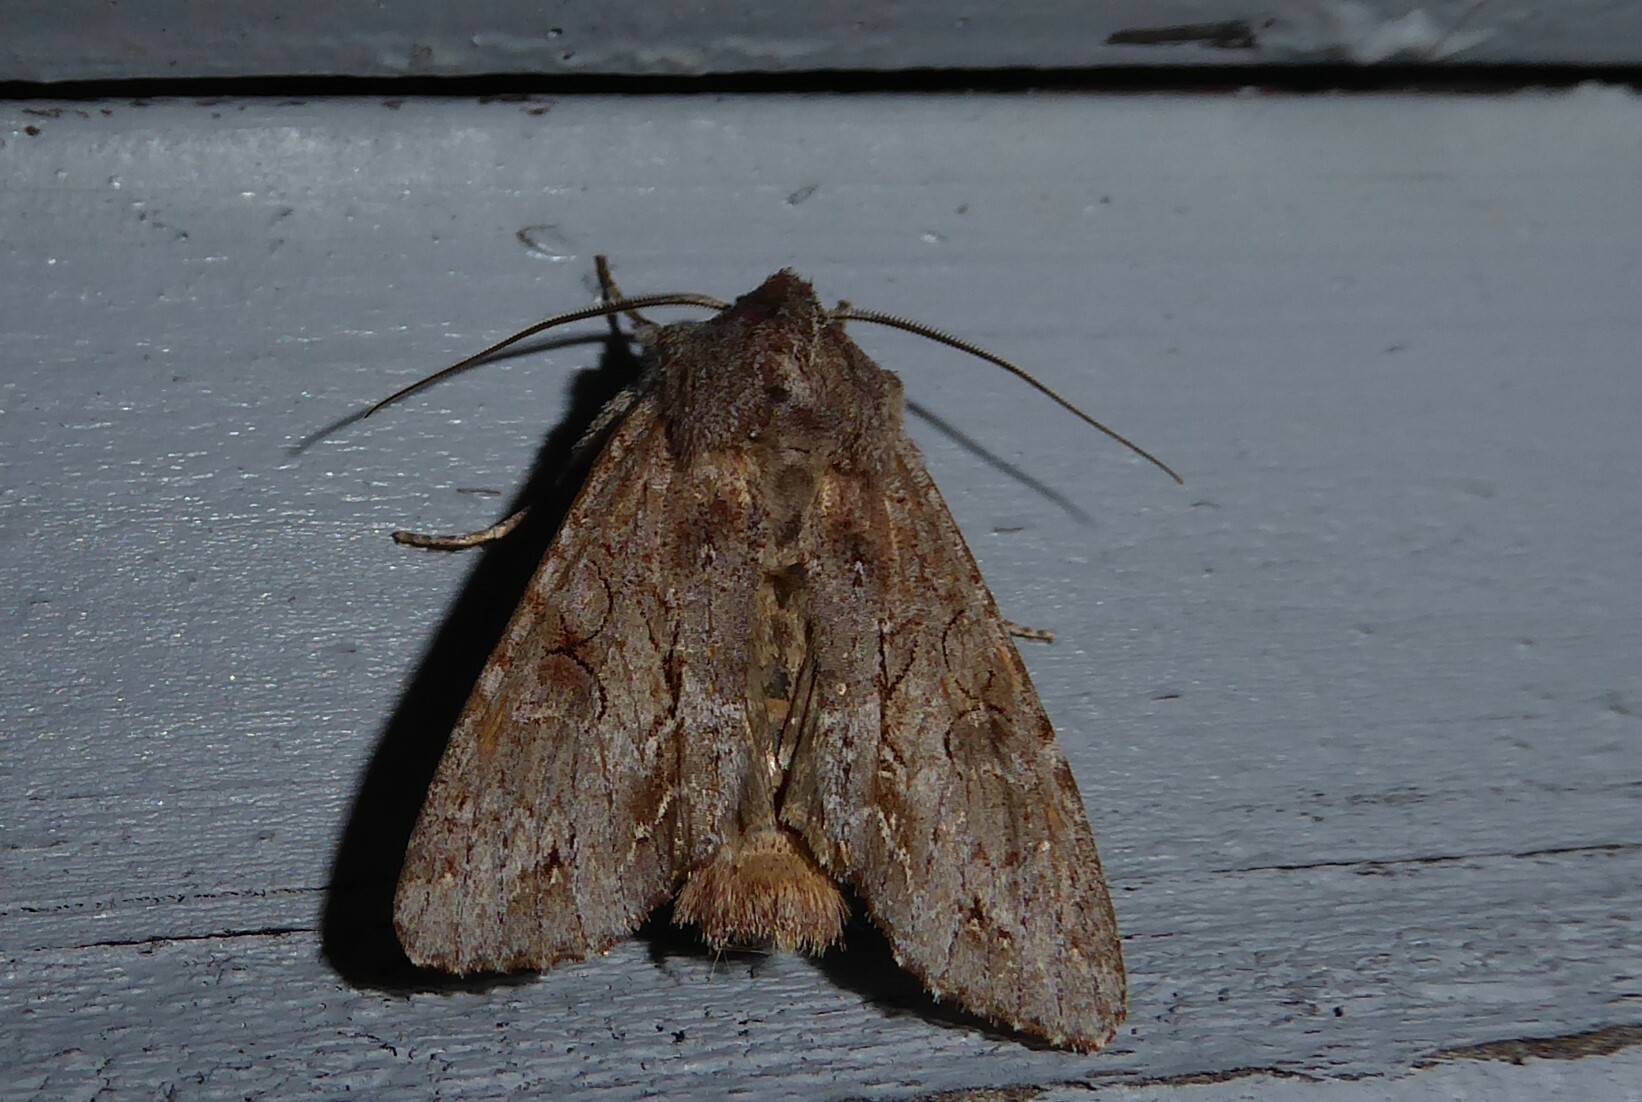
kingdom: Animalia
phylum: Arthropoda
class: Insecta
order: Lepidoptera
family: Noctuidae
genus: Ichneutica
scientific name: Ichneutica
